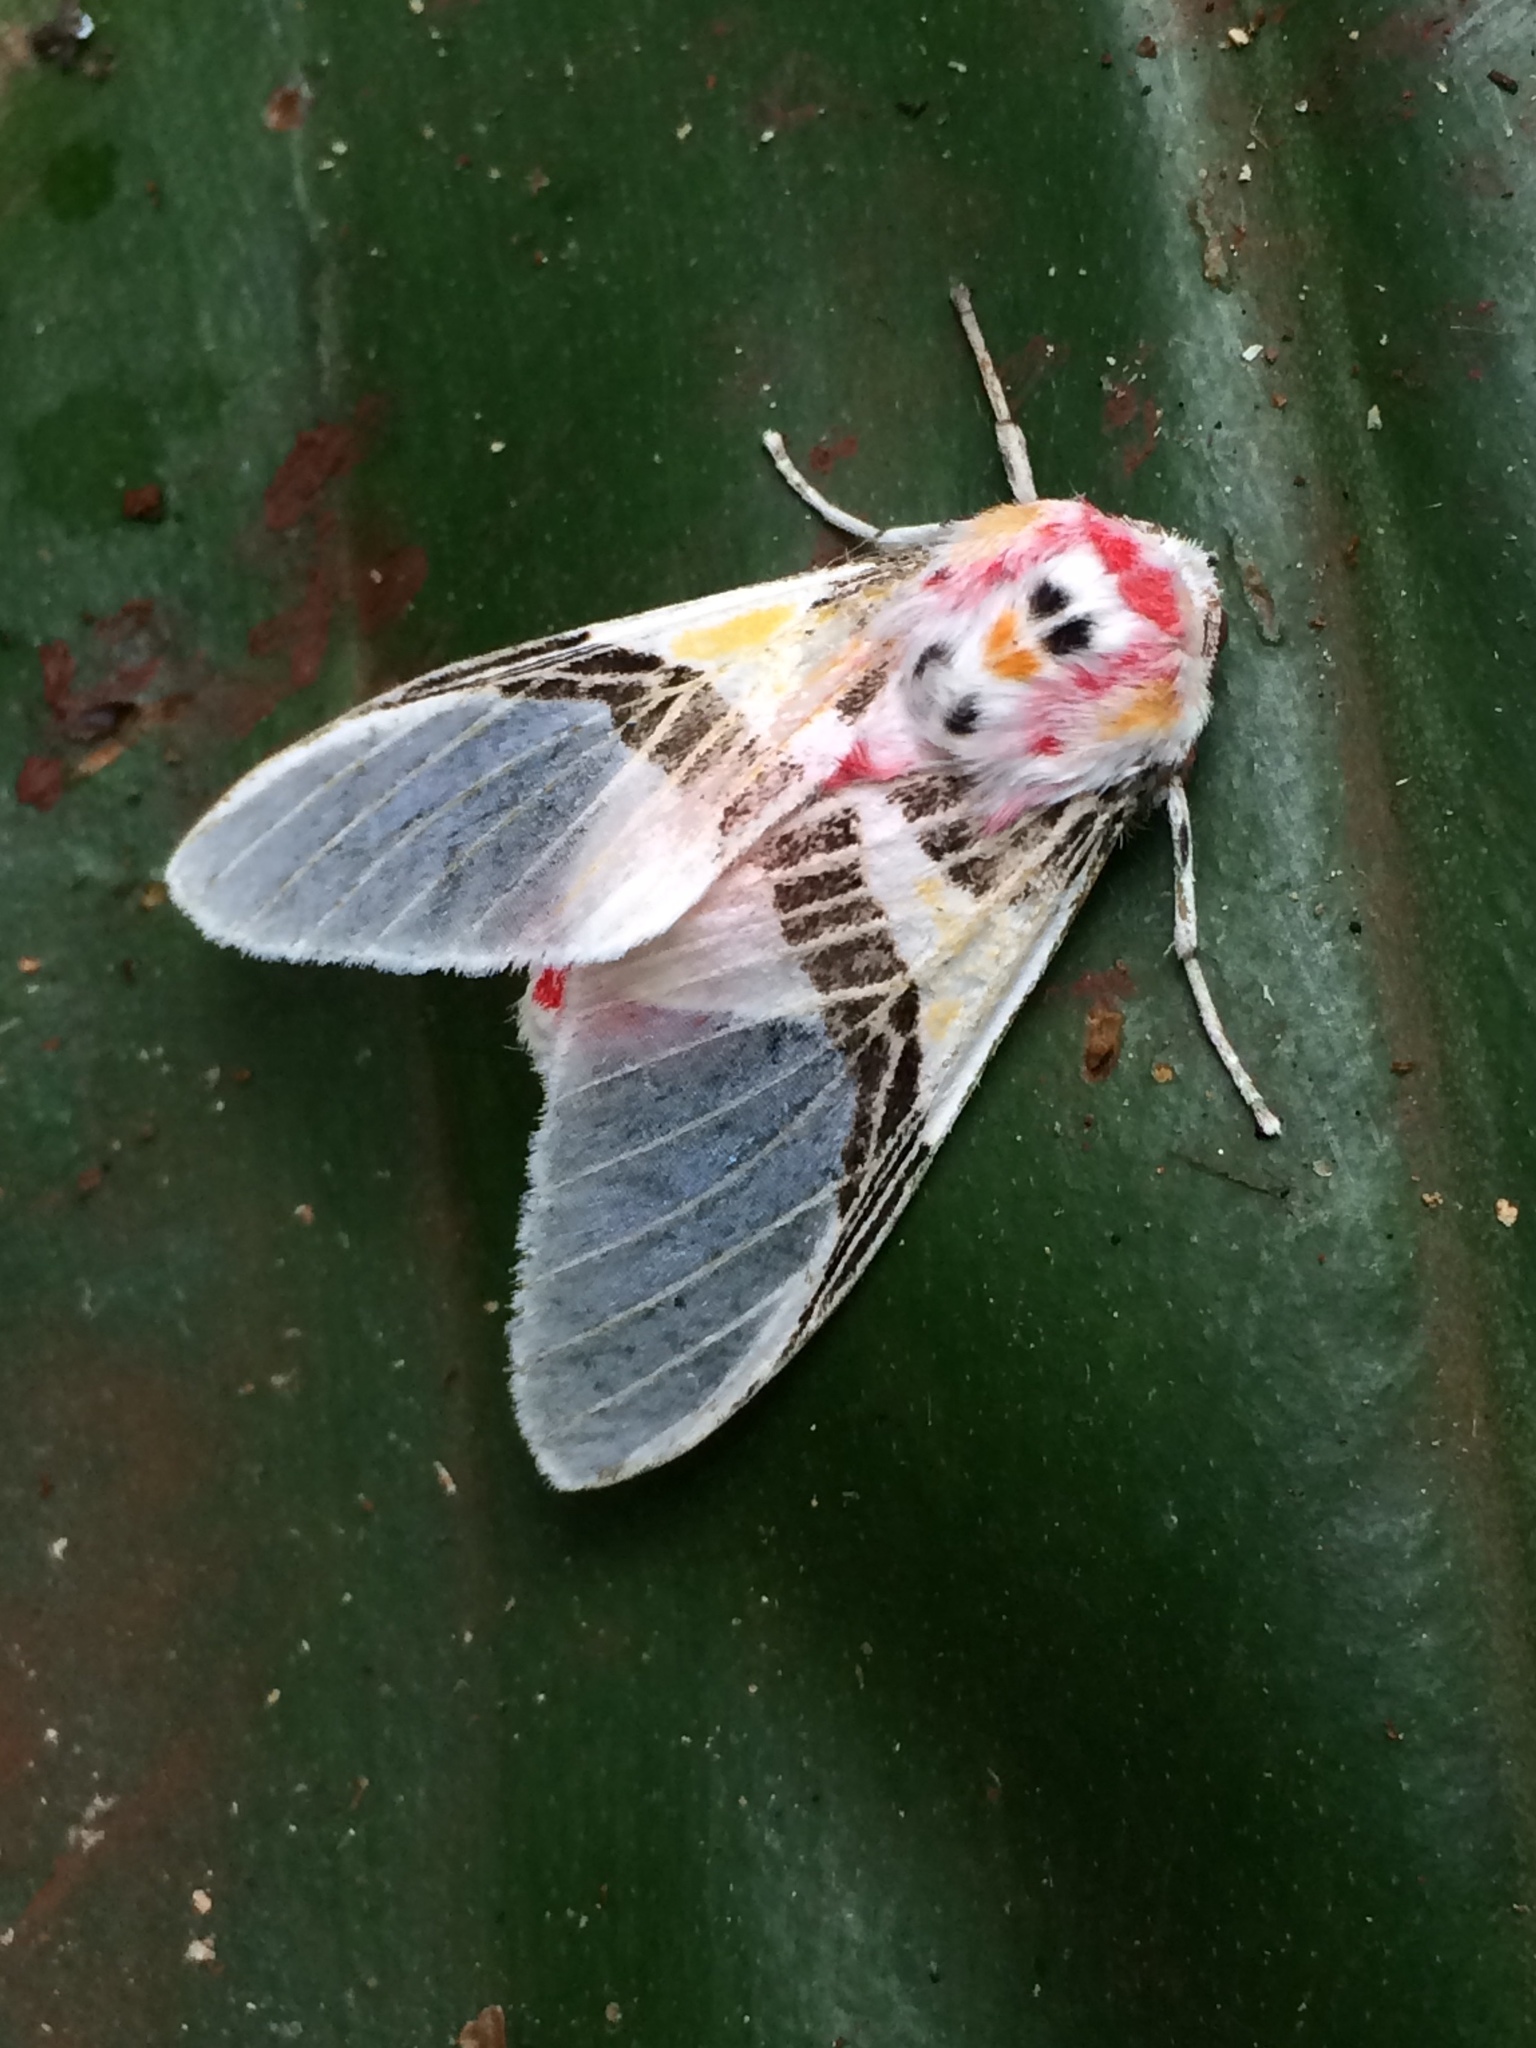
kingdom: Animalia
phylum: Arthropoda
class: Insecta
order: Lepidoptera
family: Erebidae
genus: Idalus
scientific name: Idalus herois
